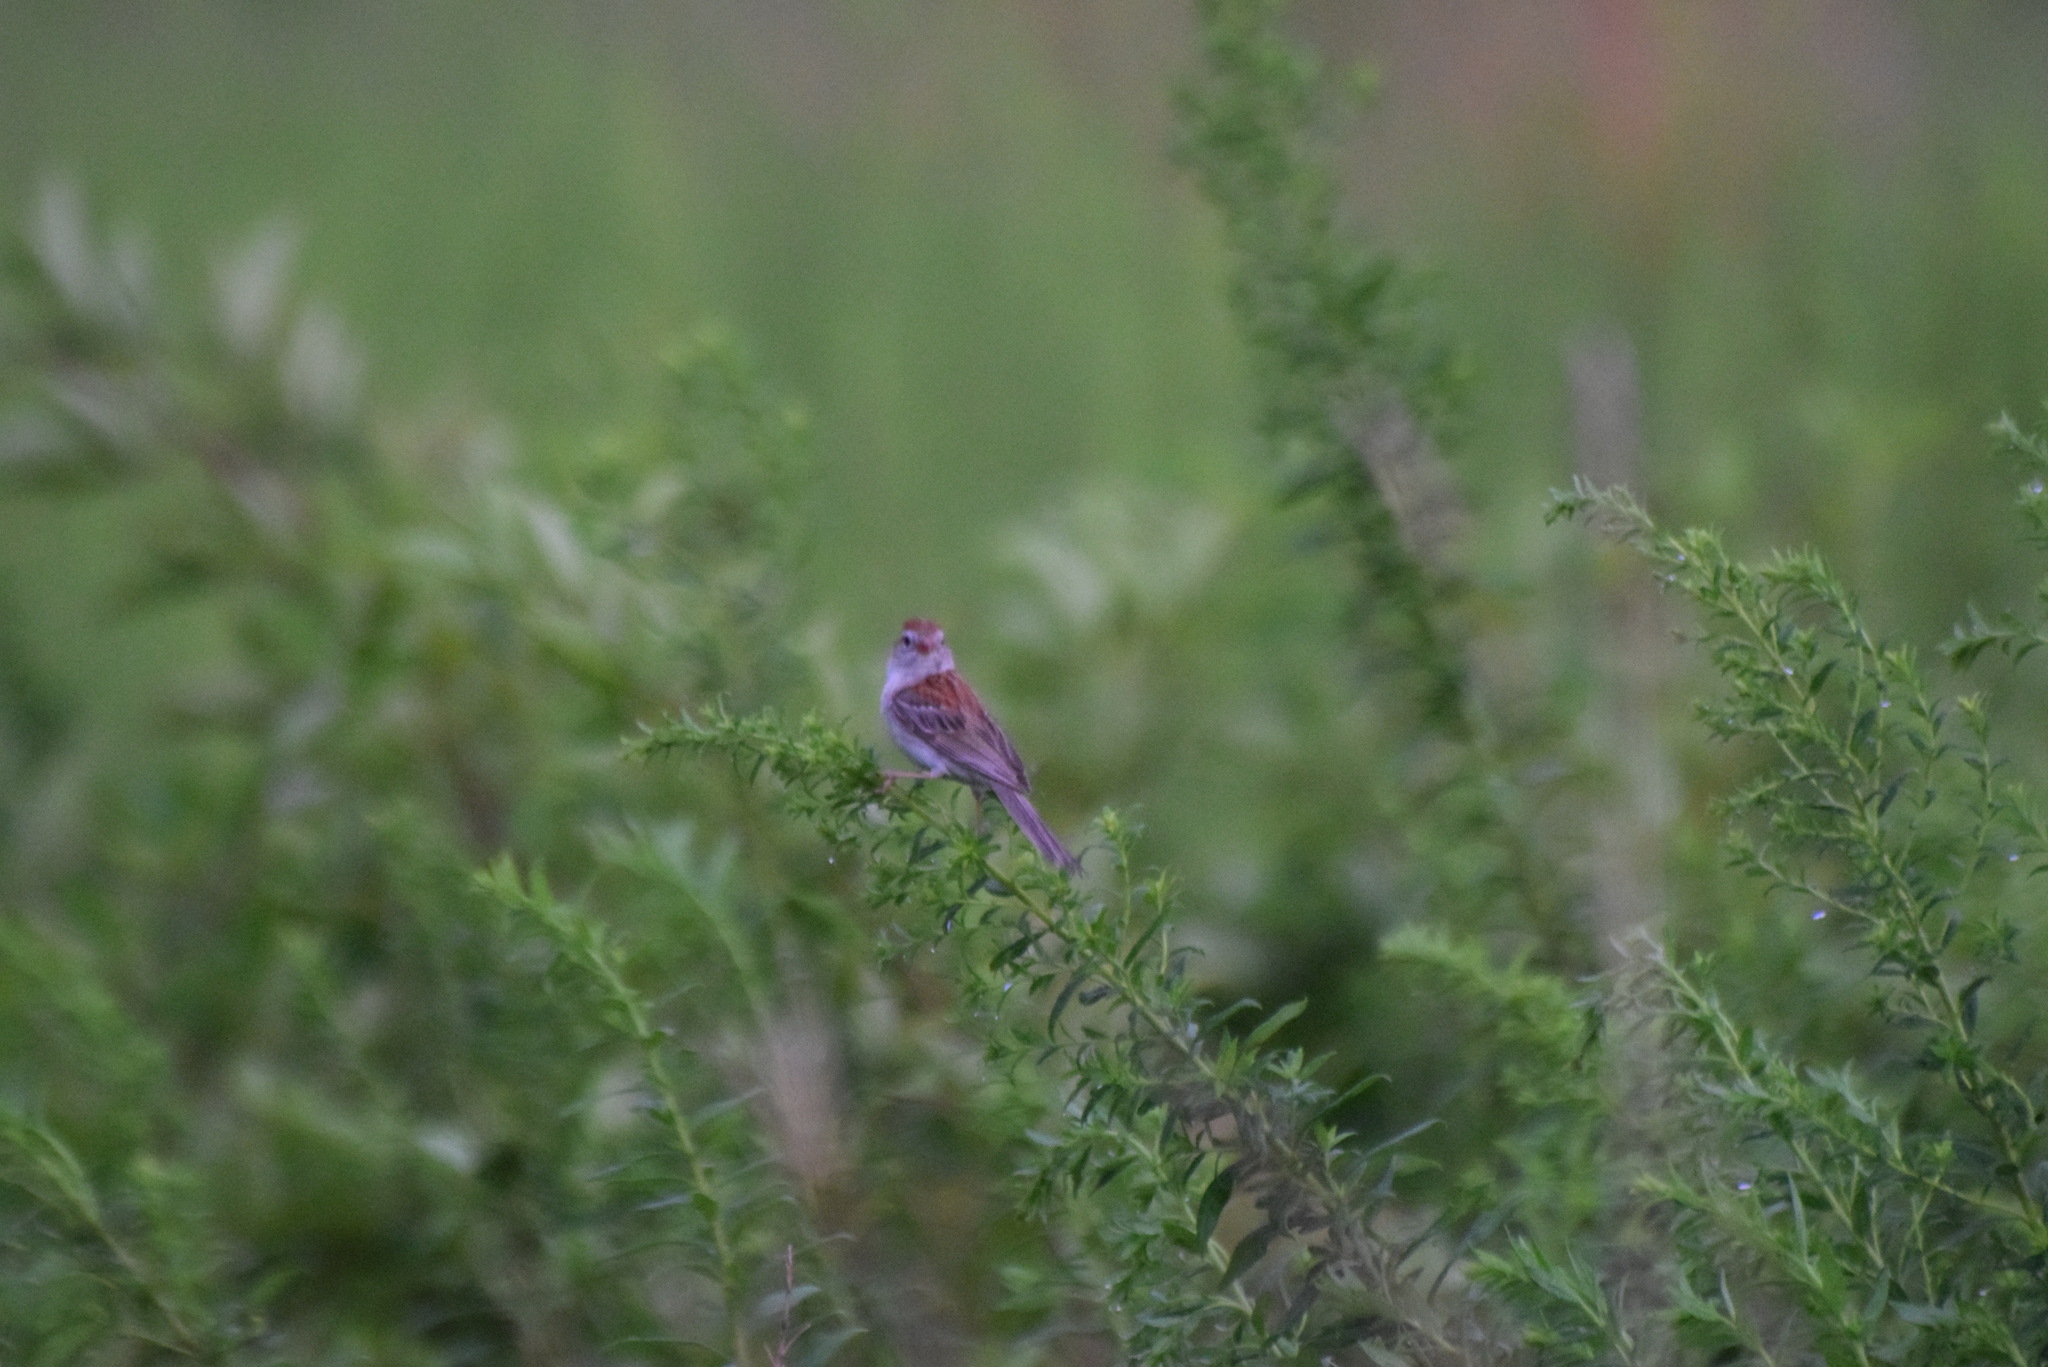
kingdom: Animalia
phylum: Chordata
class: Aves
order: Passeriformes
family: Passerellidae
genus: Spizella
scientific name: Spizella pusilla
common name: Field sparrow
